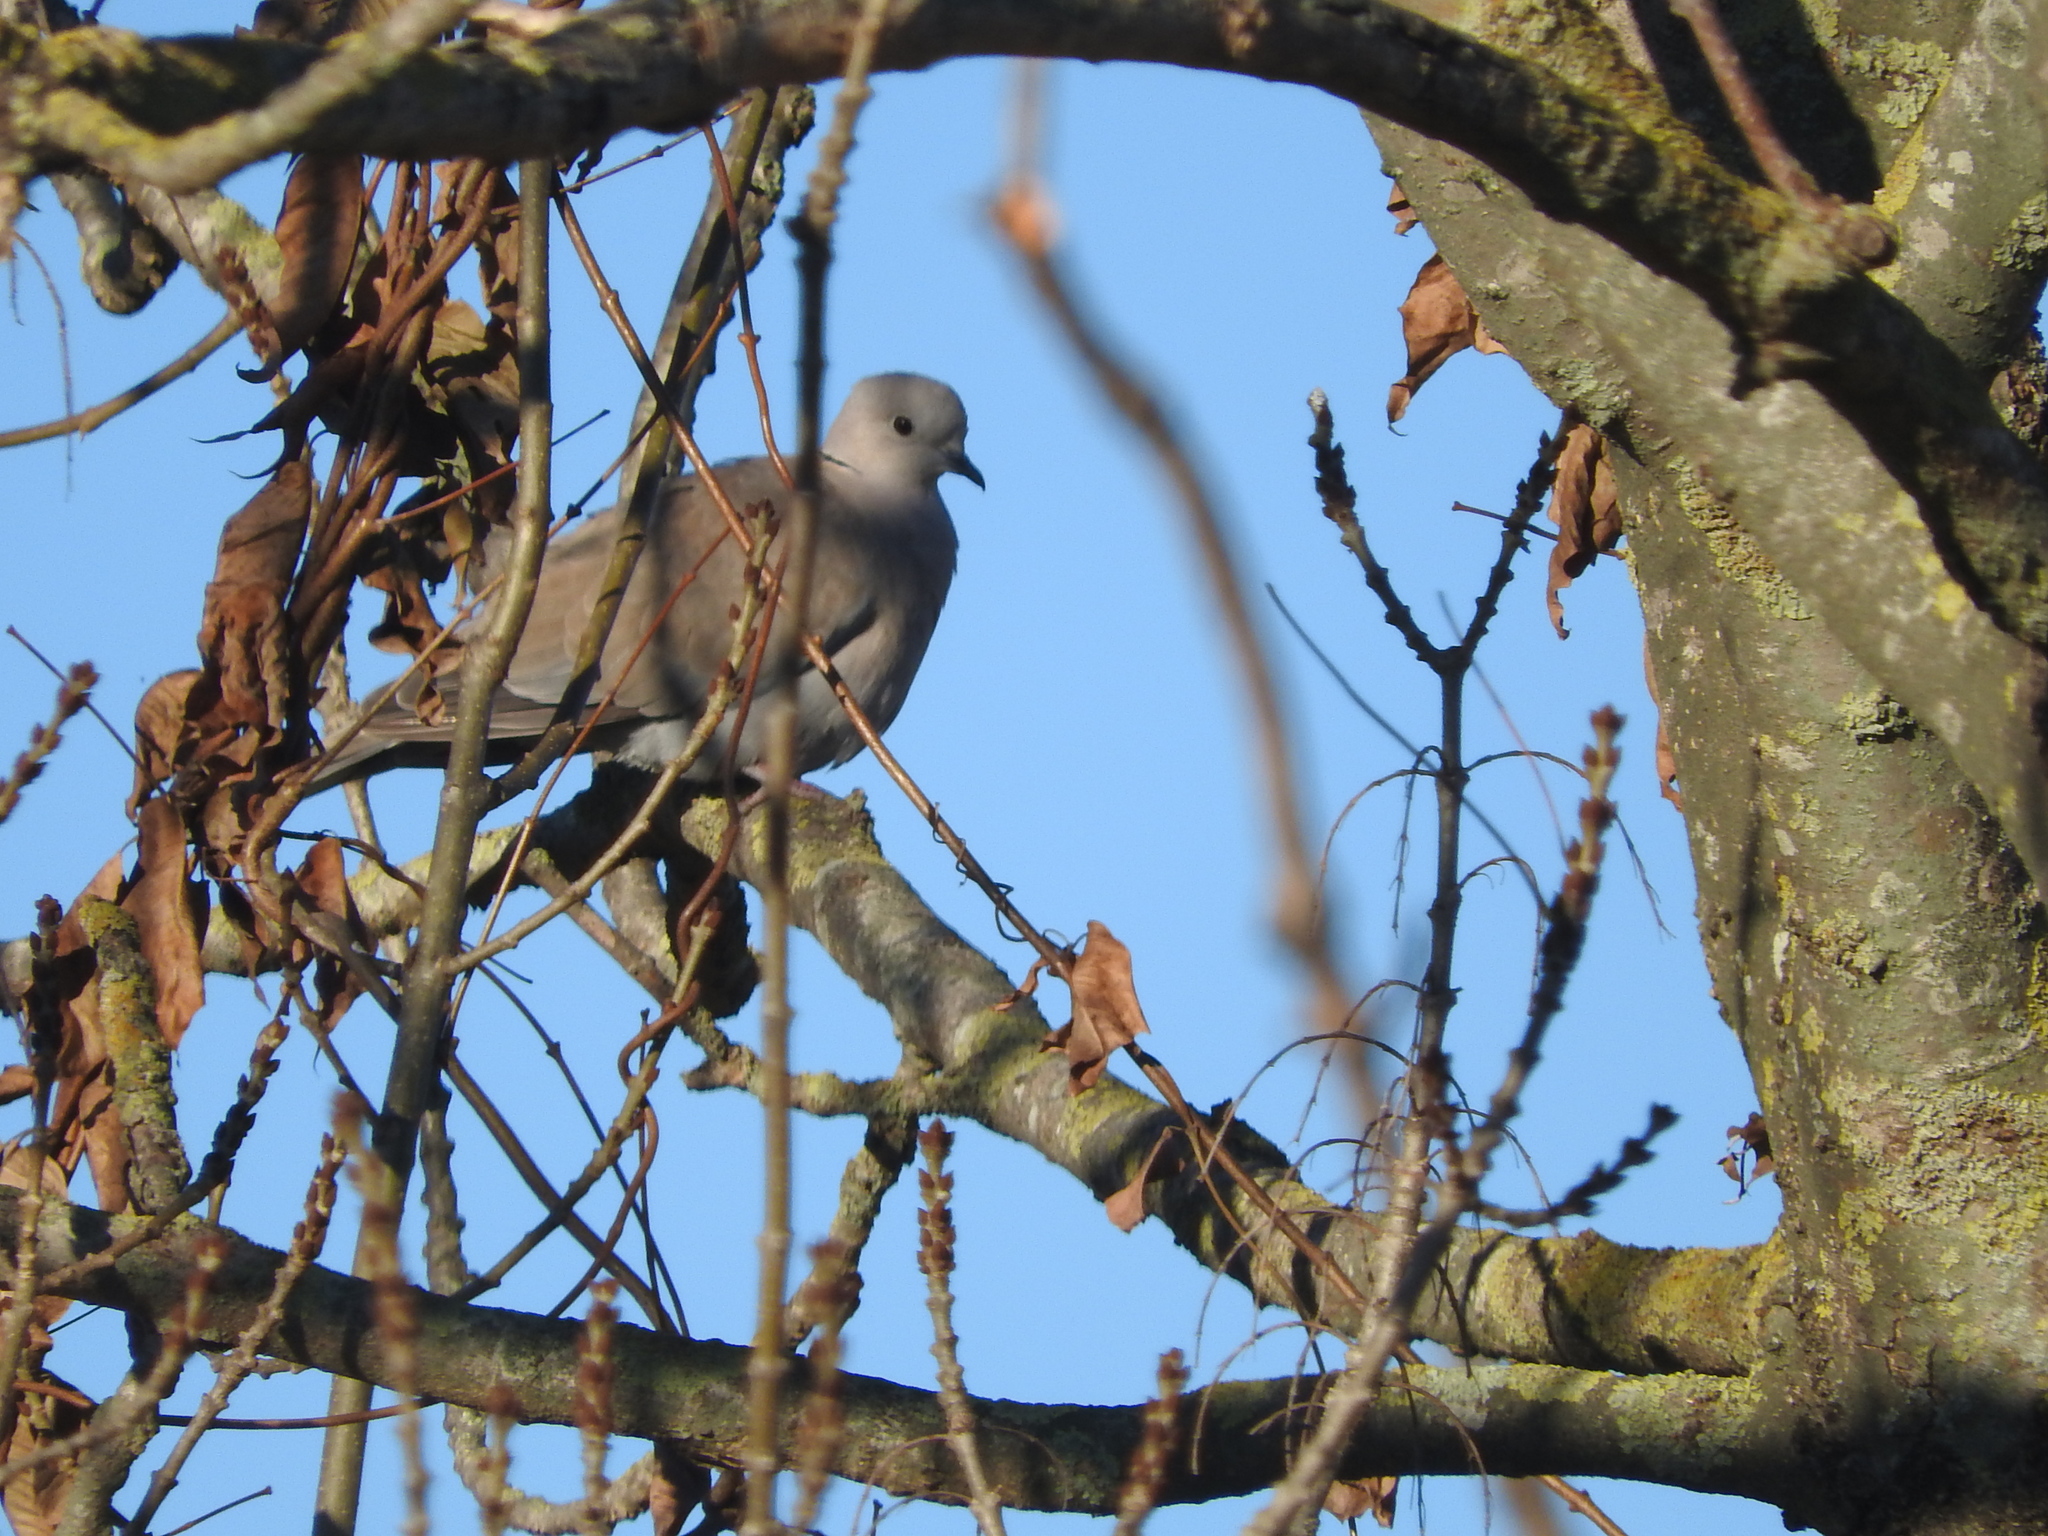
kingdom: Animalia
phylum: Chordata
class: Aves
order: Columbiformes
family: Columbidae
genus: Streptopelia
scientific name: Streptopelia decaocto
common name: Eurasian collared dove
